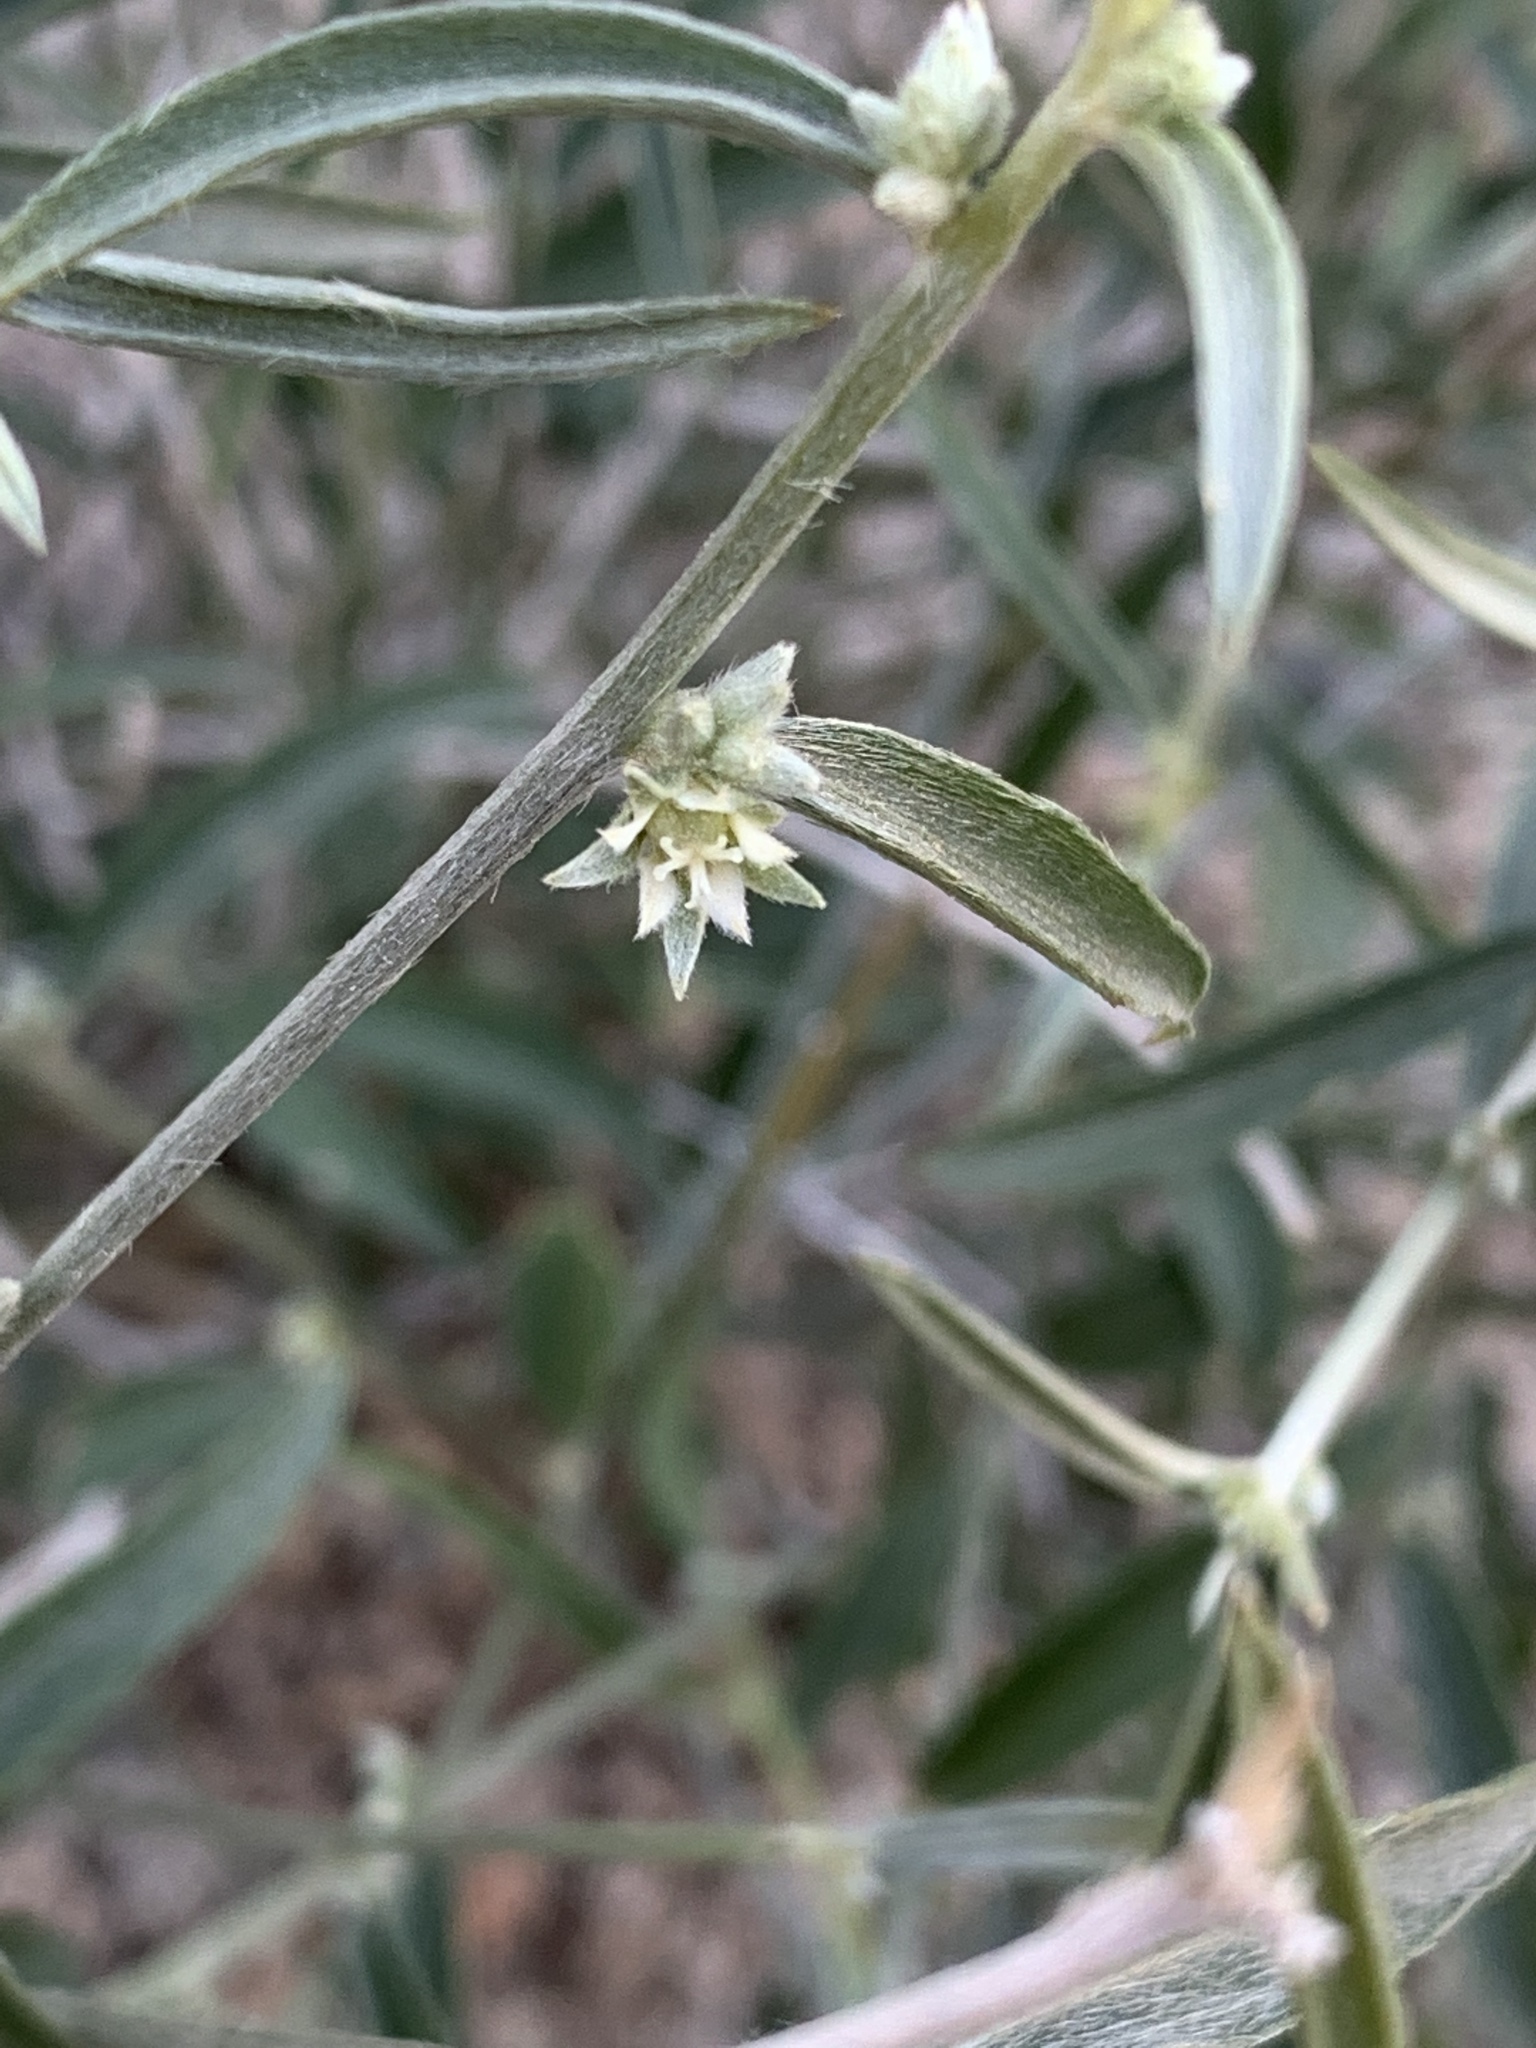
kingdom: Plantae
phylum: Tracheophyta
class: Magnoliopsida
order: Malpighiales
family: Euphorbiaceae
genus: Ditaxis
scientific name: Ditaxis lanceolata
